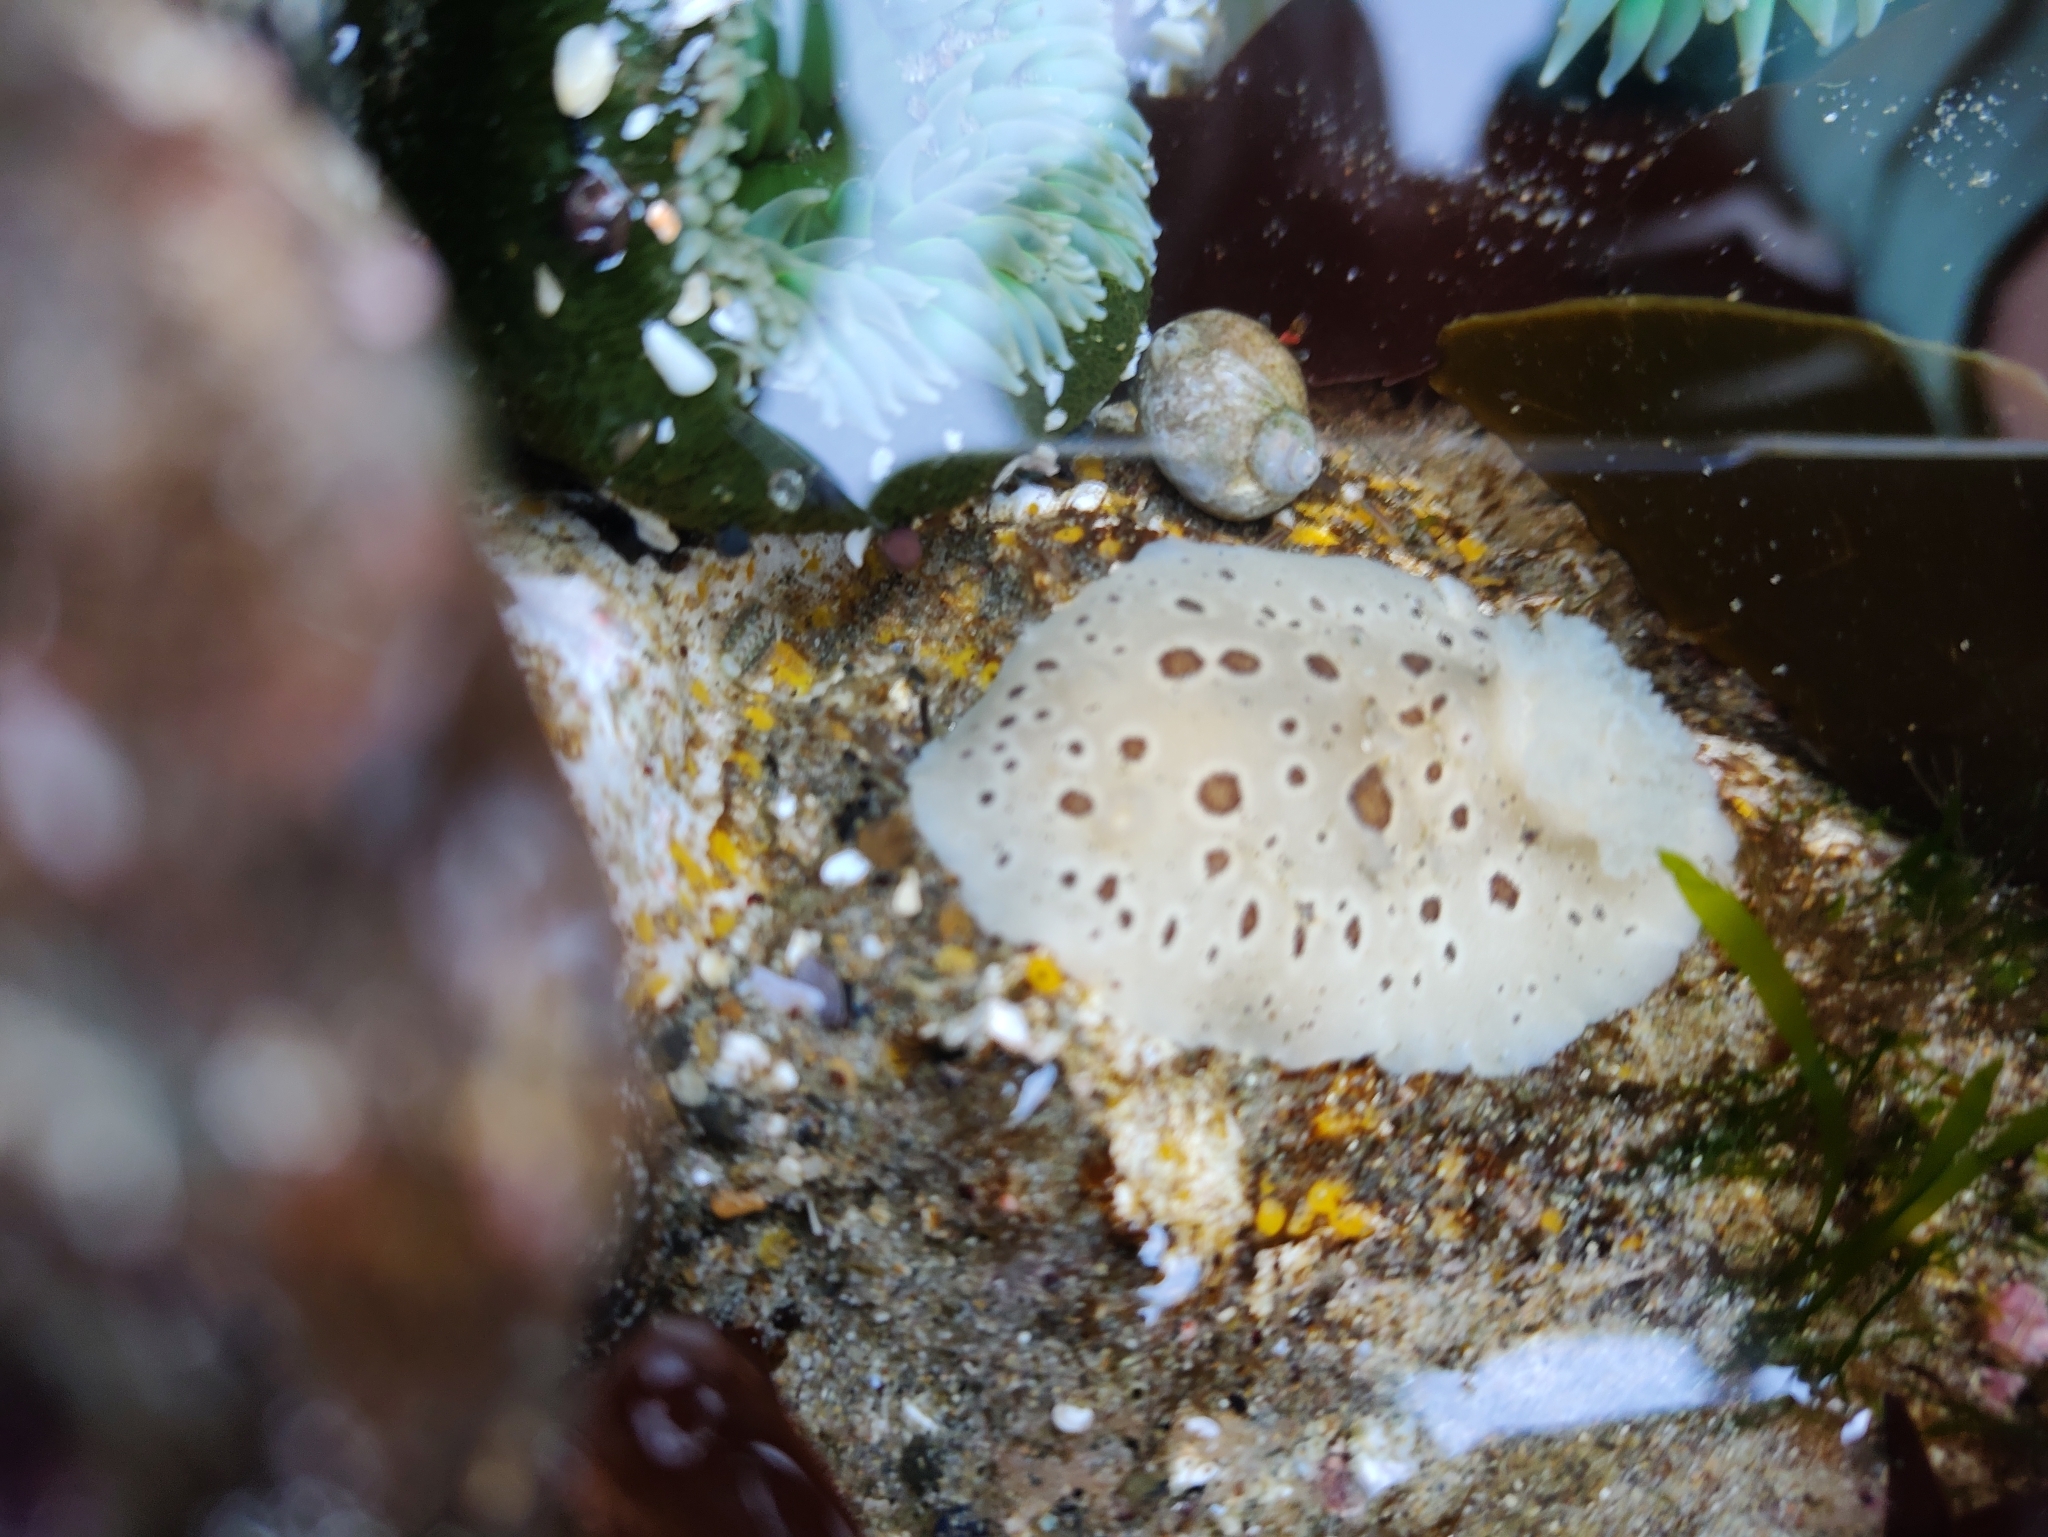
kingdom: Animalia
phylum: Mollusca
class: Gastropoda
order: Nudibranchia
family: Discodorididae
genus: Diaulula
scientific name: Diaulula odonoghuei
